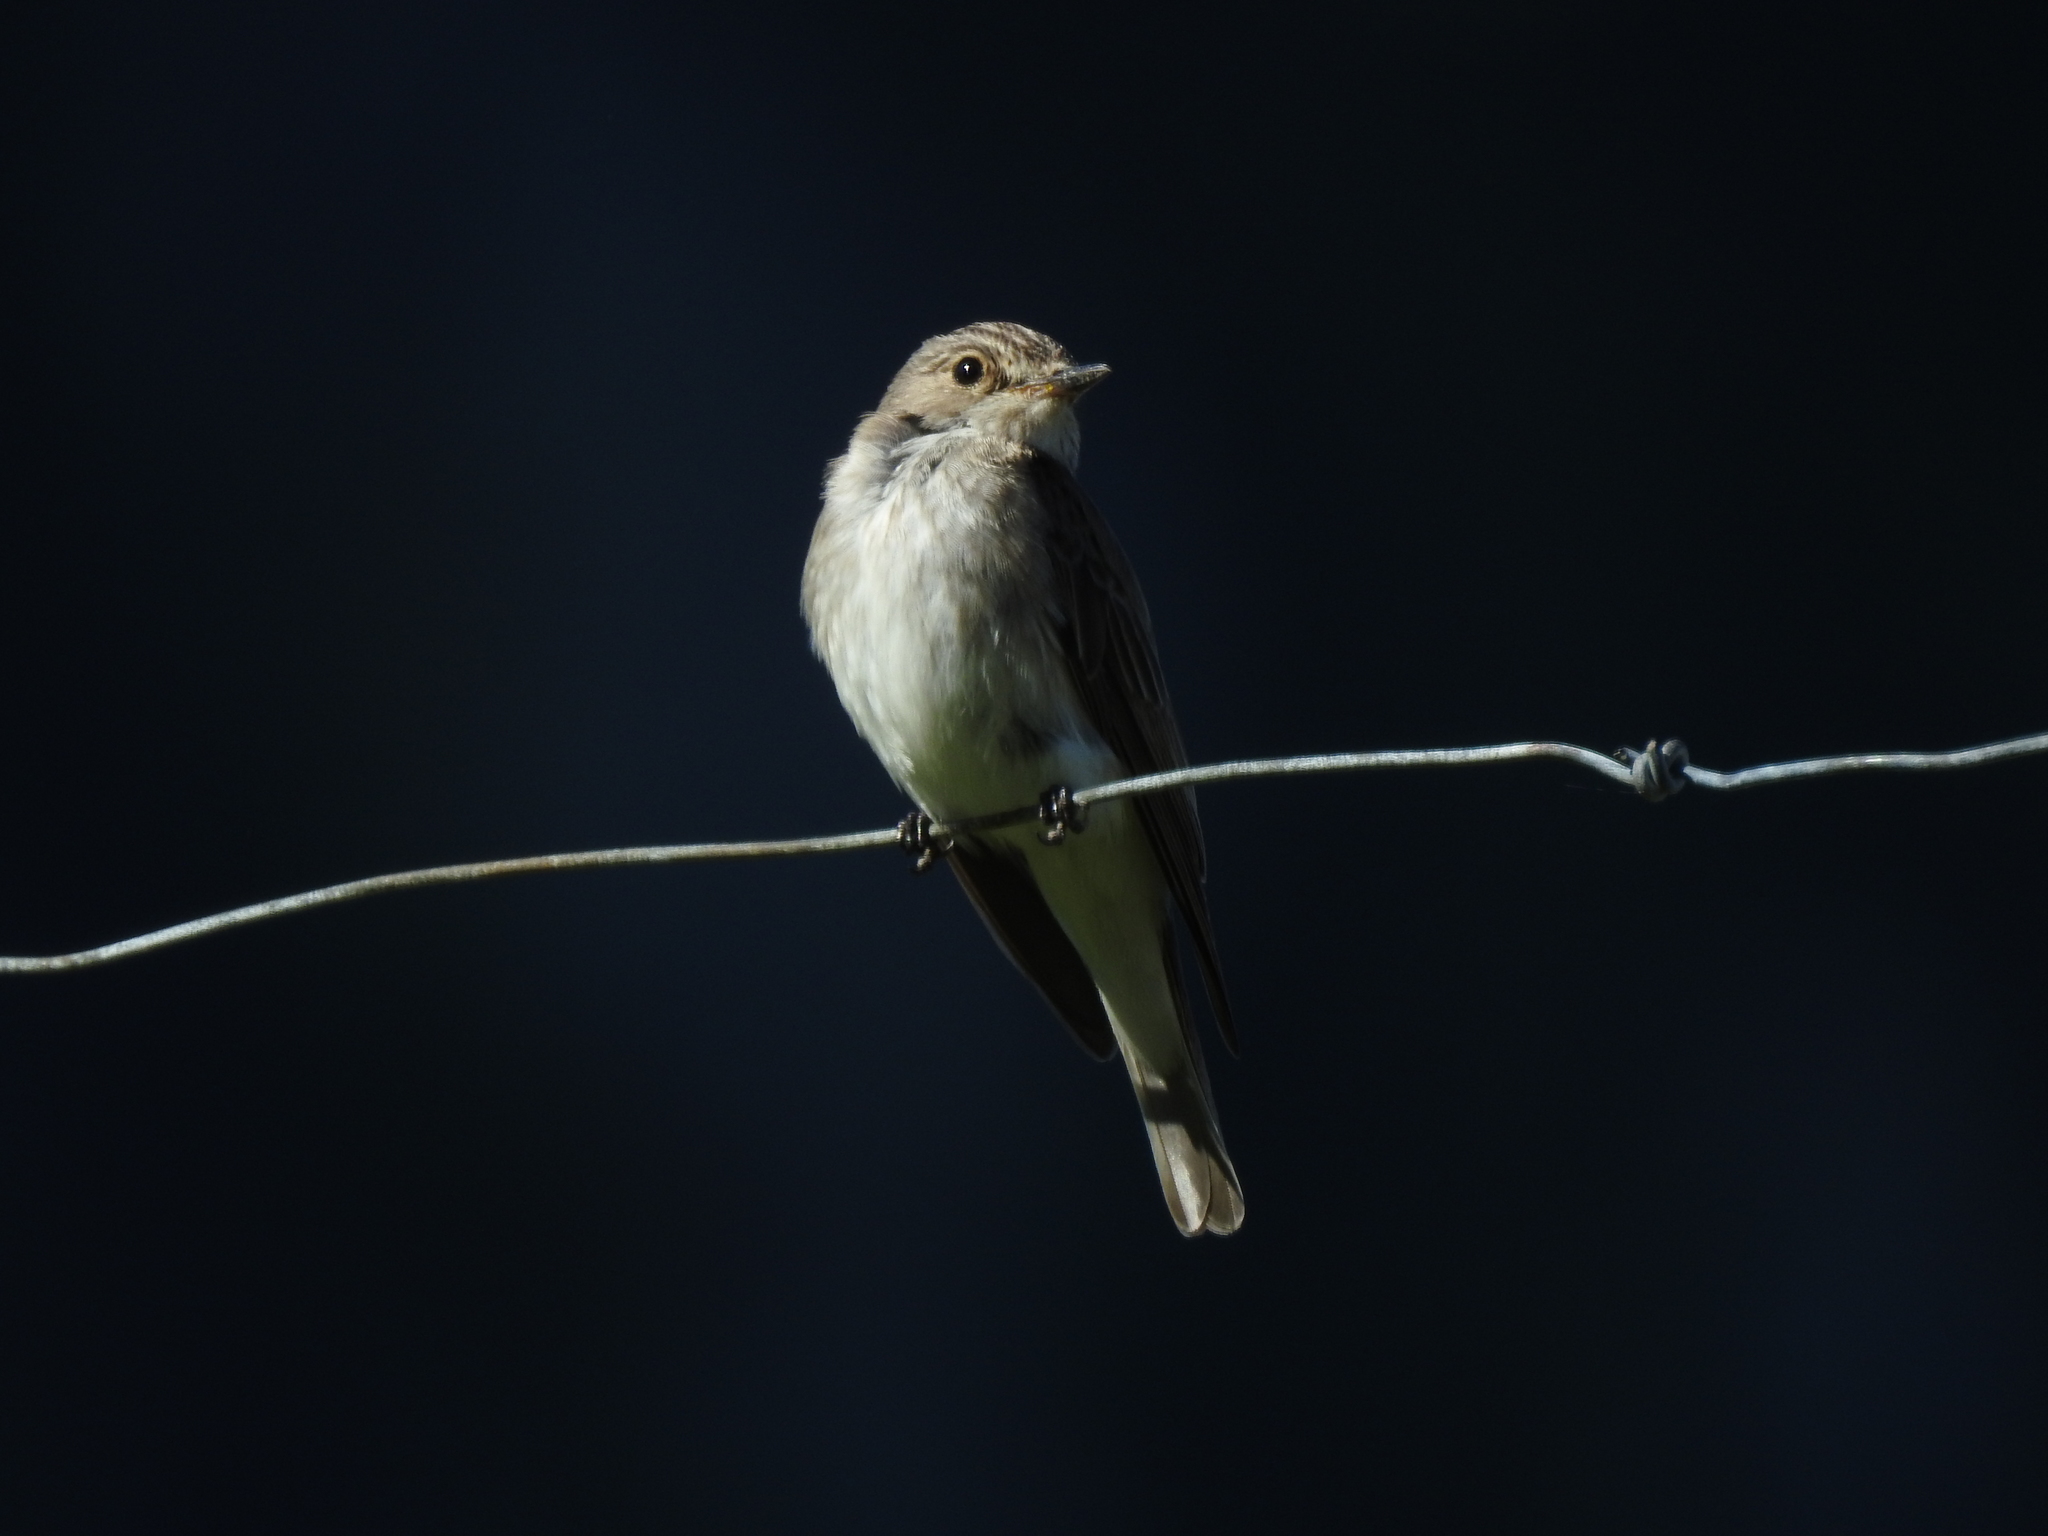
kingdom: Animalia
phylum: Chordata
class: Aves
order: Passeriformes
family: Muscicapidae
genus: Muscicapa
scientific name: Muscicapa striata
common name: Spotted flycatcher
